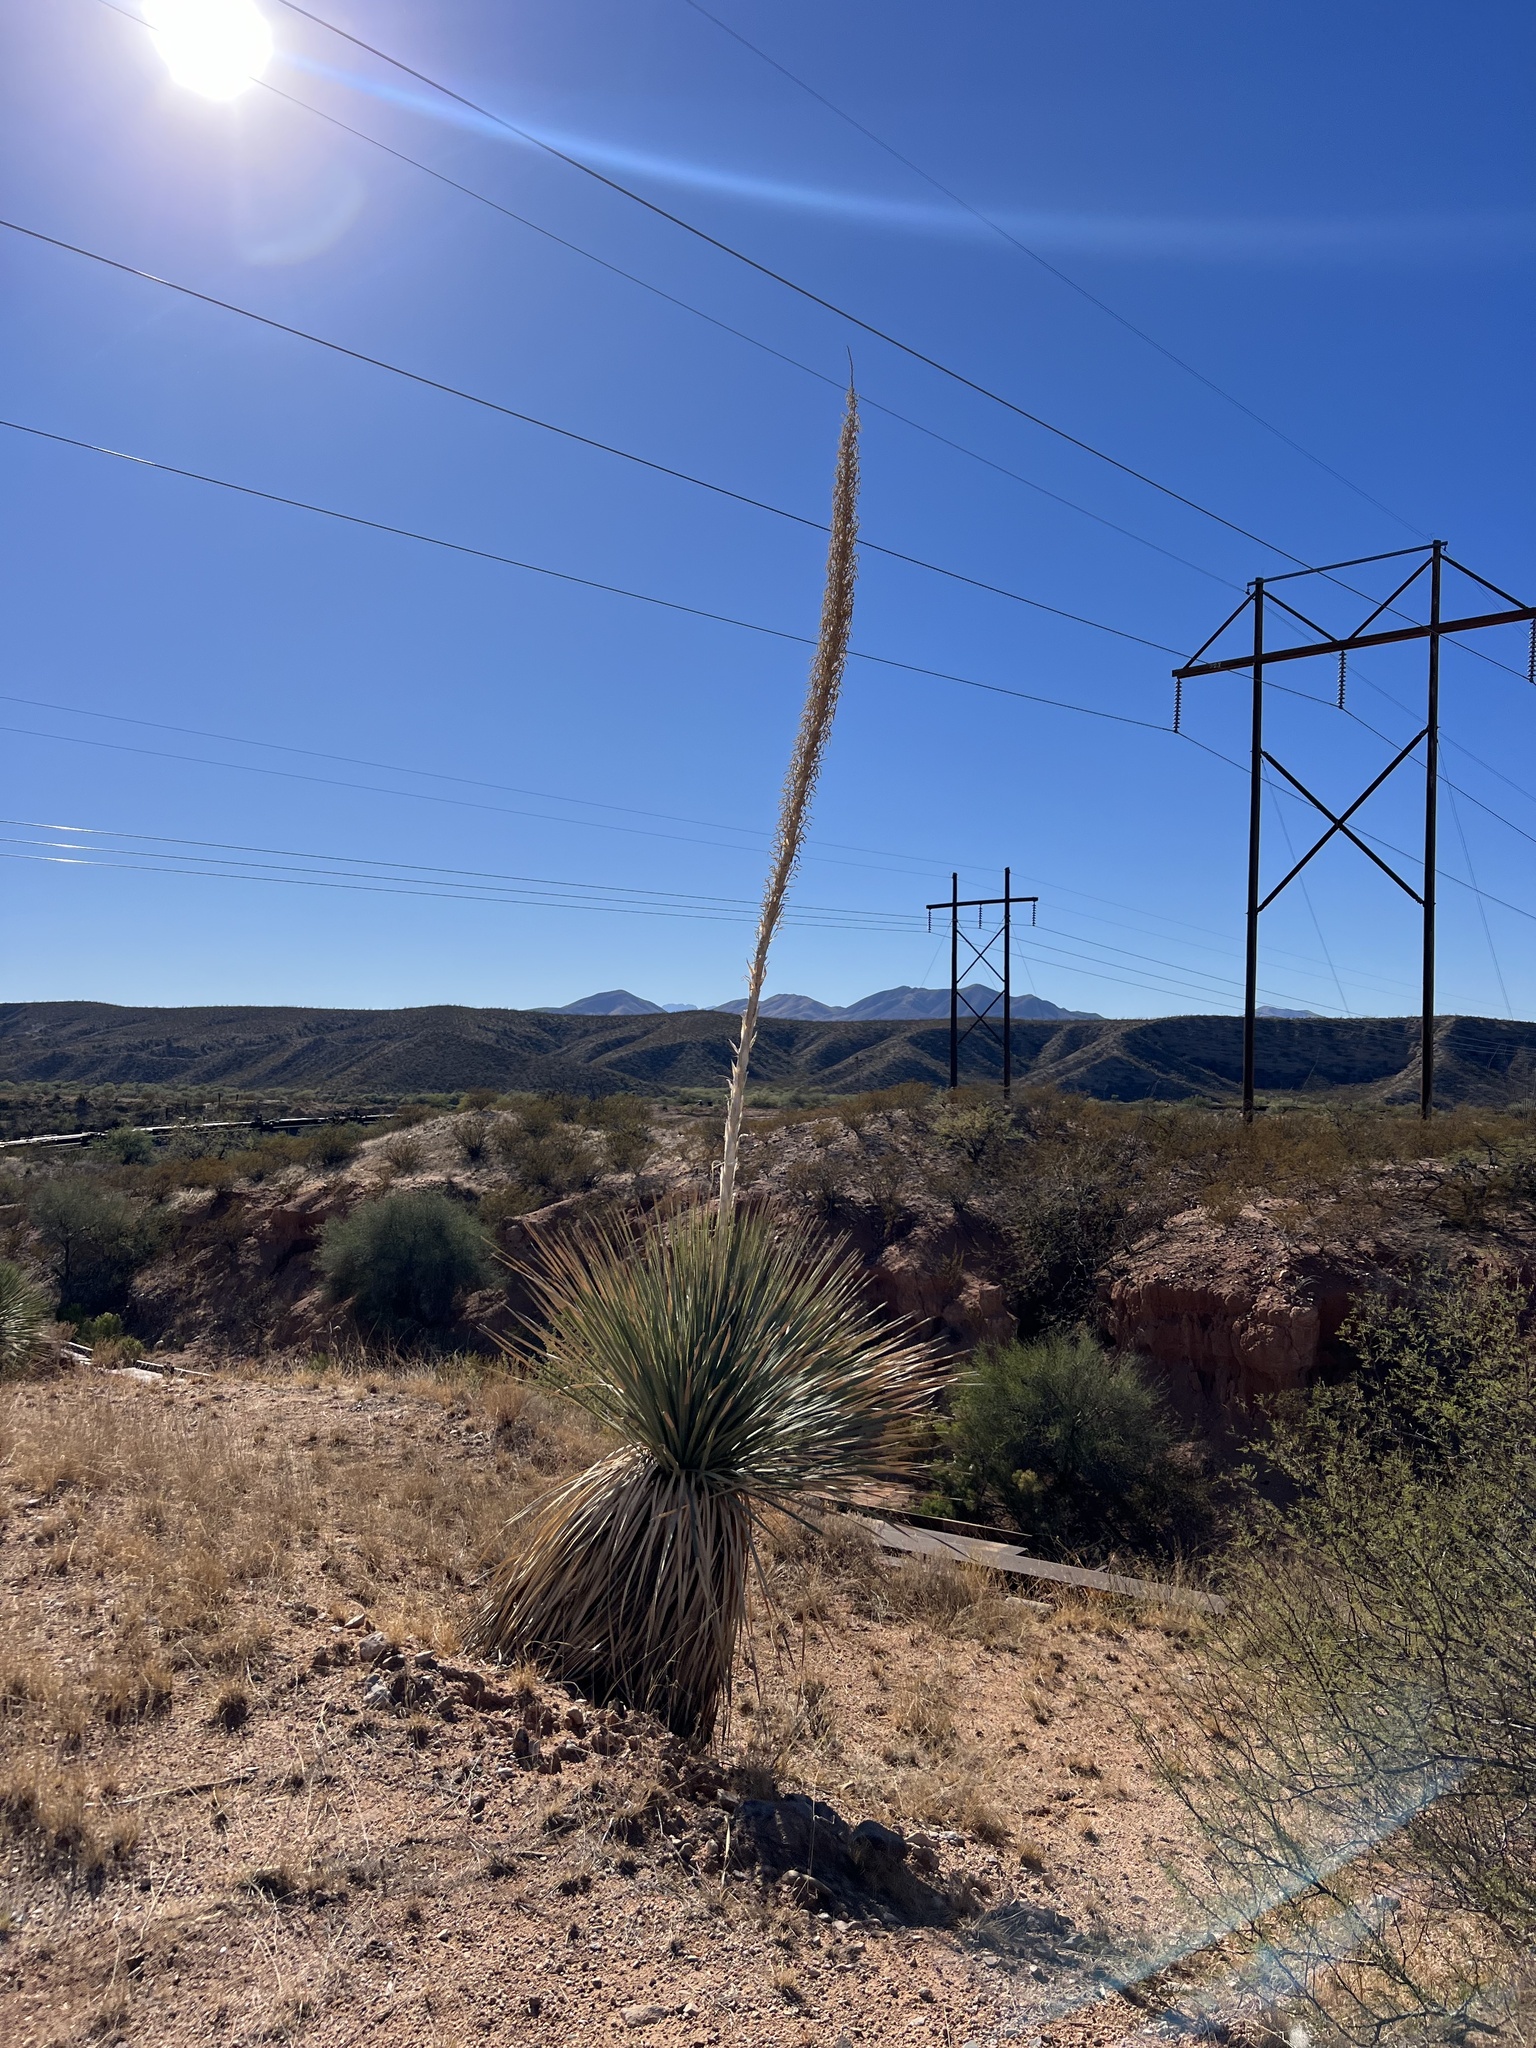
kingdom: Plantae
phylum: Tracheophyta
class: Liliopsida
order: Asparagales
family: Asparagaceae
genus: Dasylirion
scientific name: Dasylirion wheeleri
